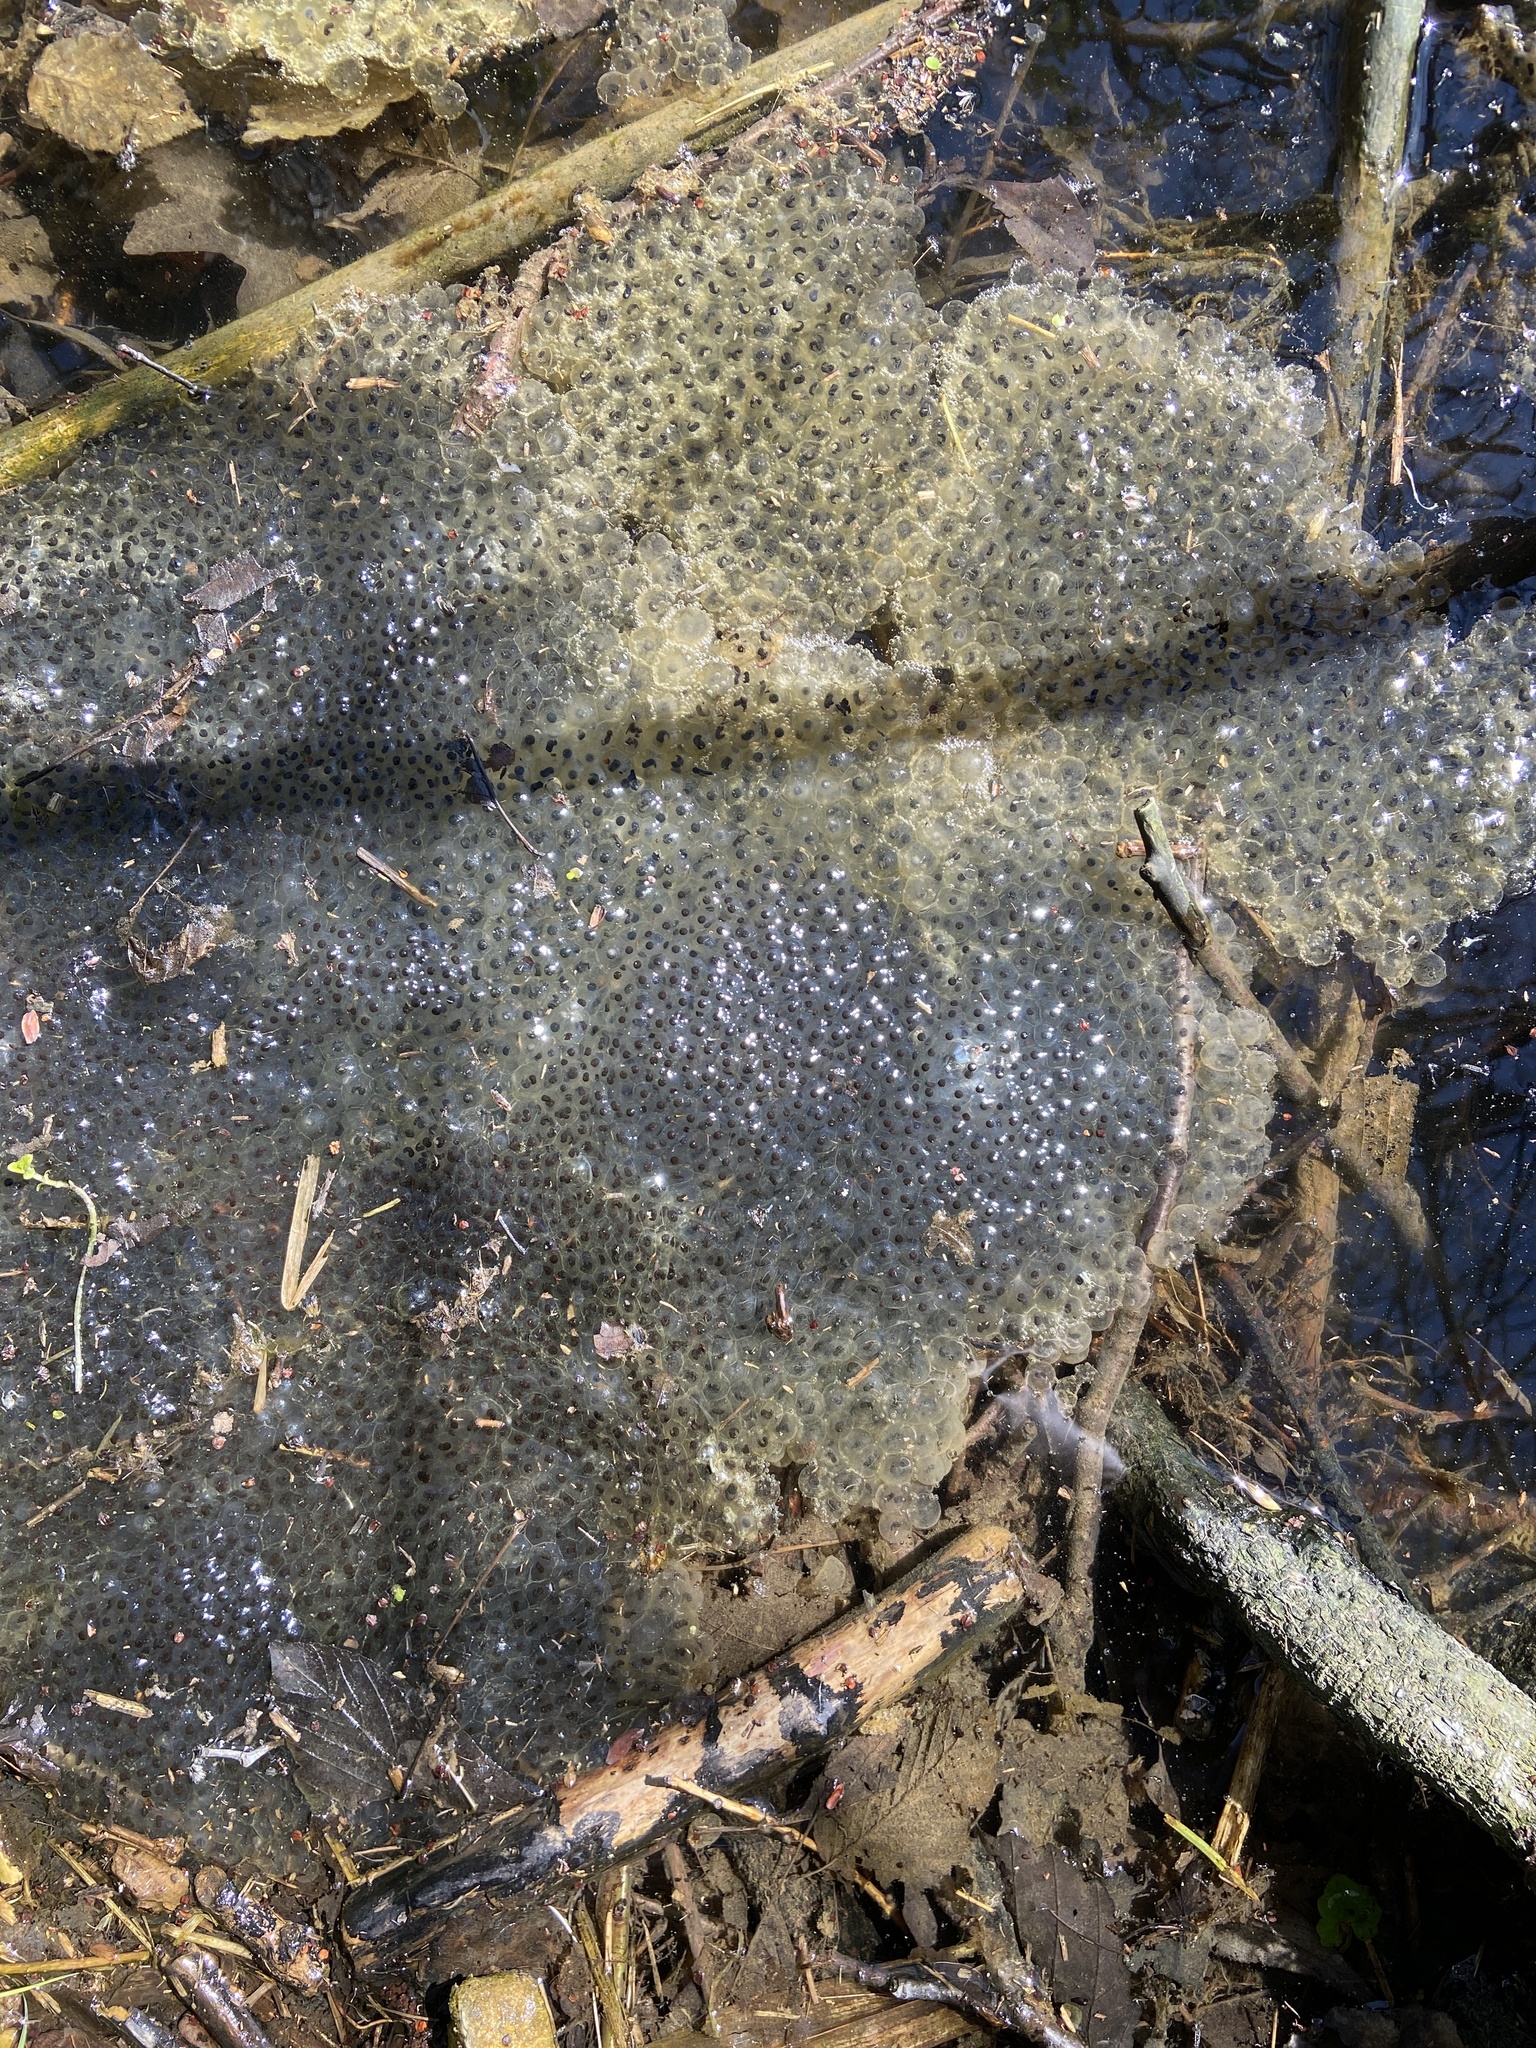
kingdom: Animalia
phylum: Chordata
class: Amphibia
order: Anura
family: Ranidae
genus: Rana
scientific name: Rana temporaria
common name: Common frog
